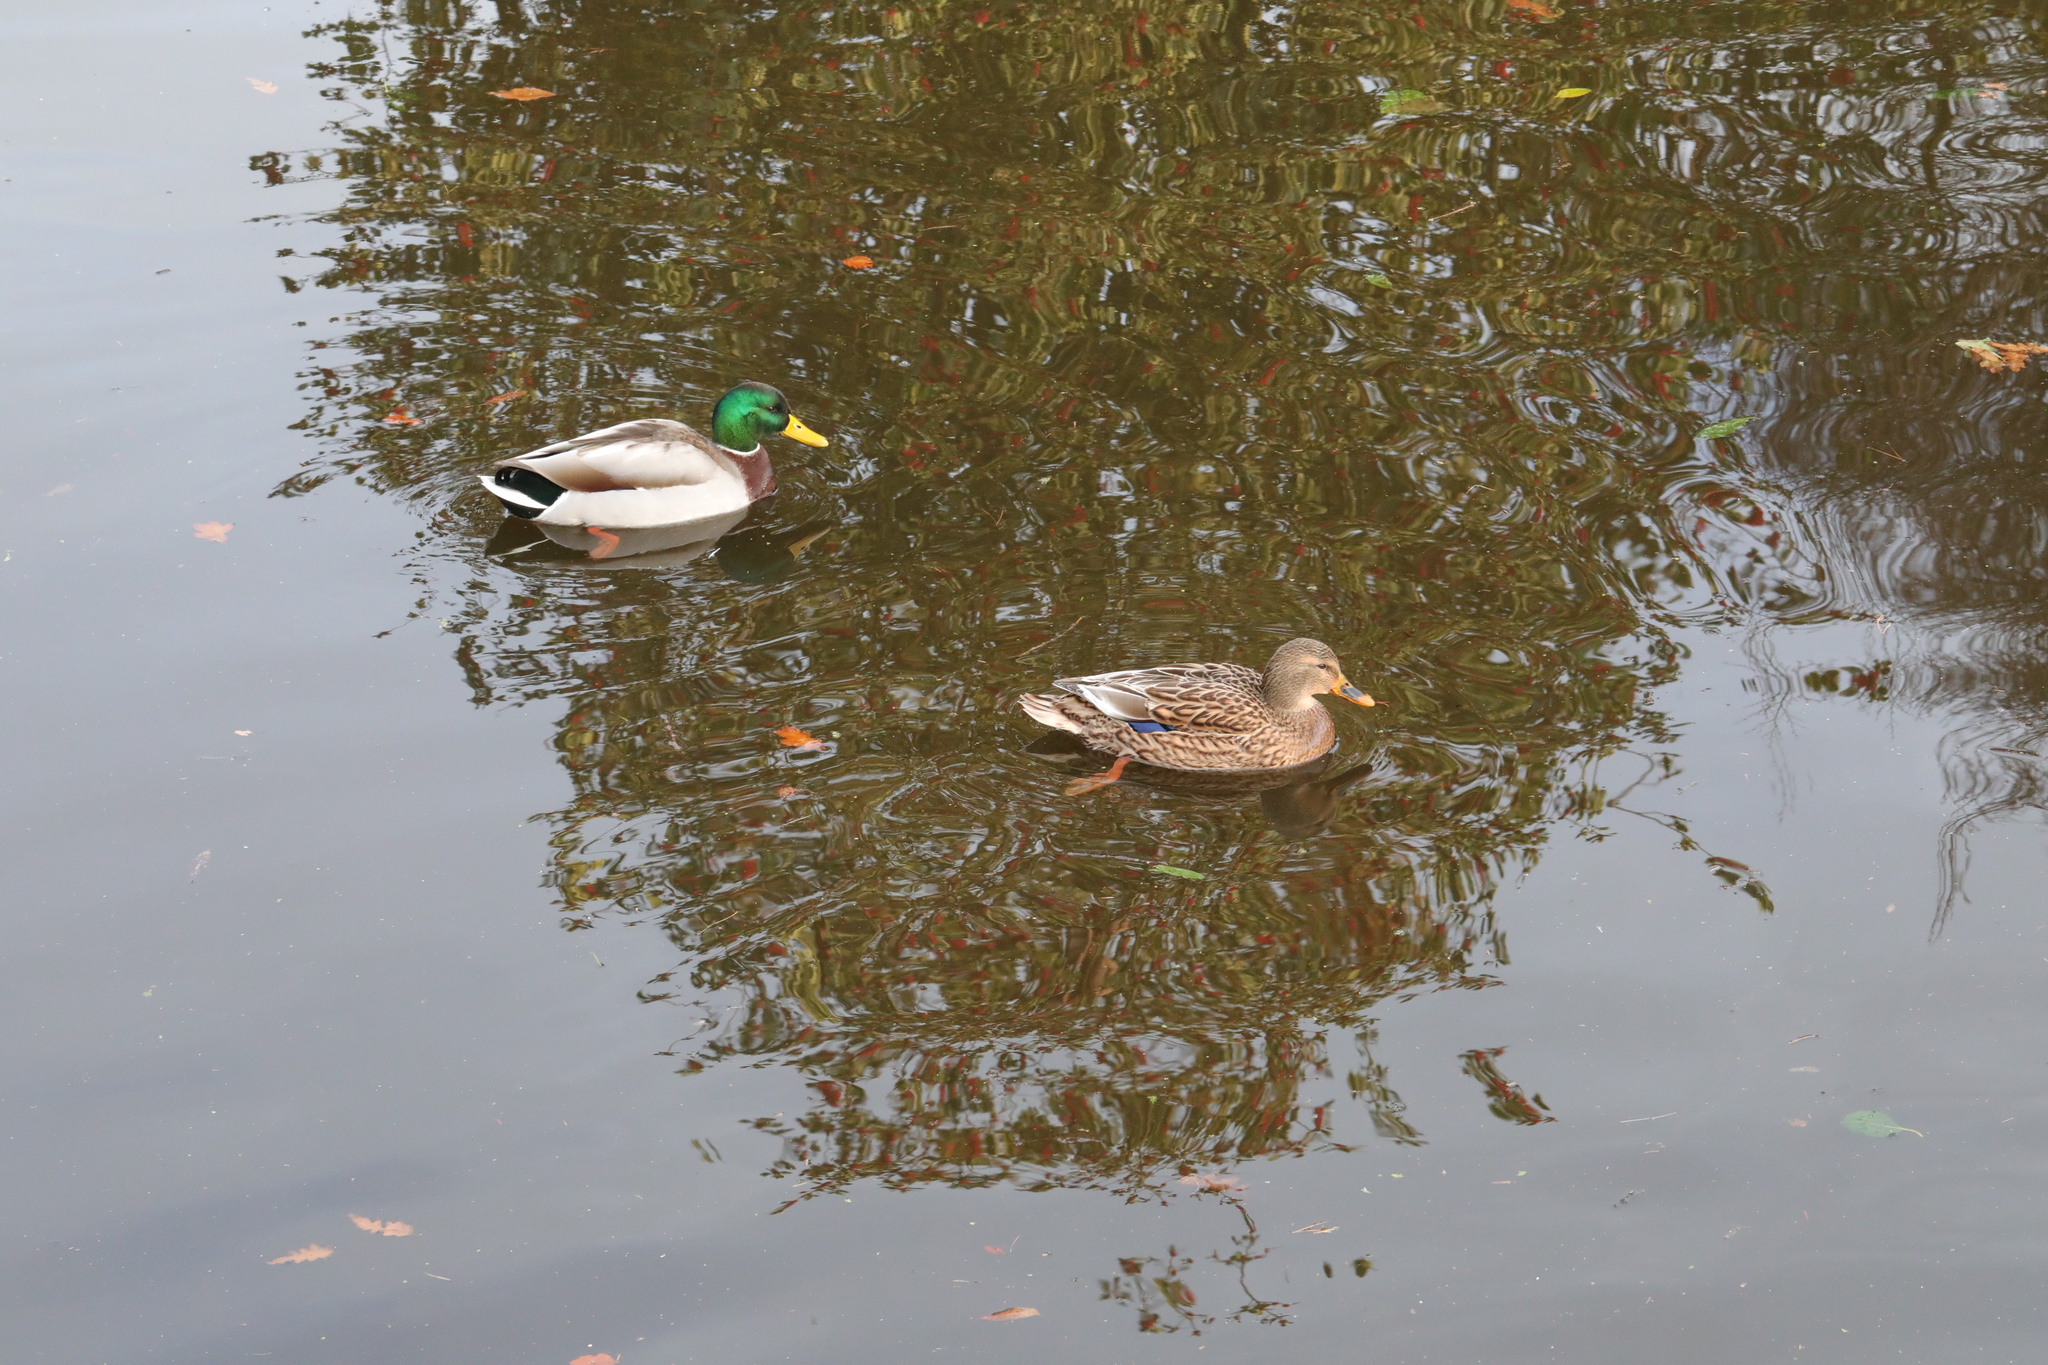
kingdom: Animalia
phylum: Chordata
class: Aves
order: Anseriformes
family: Anatidae
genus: Anas
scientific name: Anas platyrhynchos
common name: Mallard
